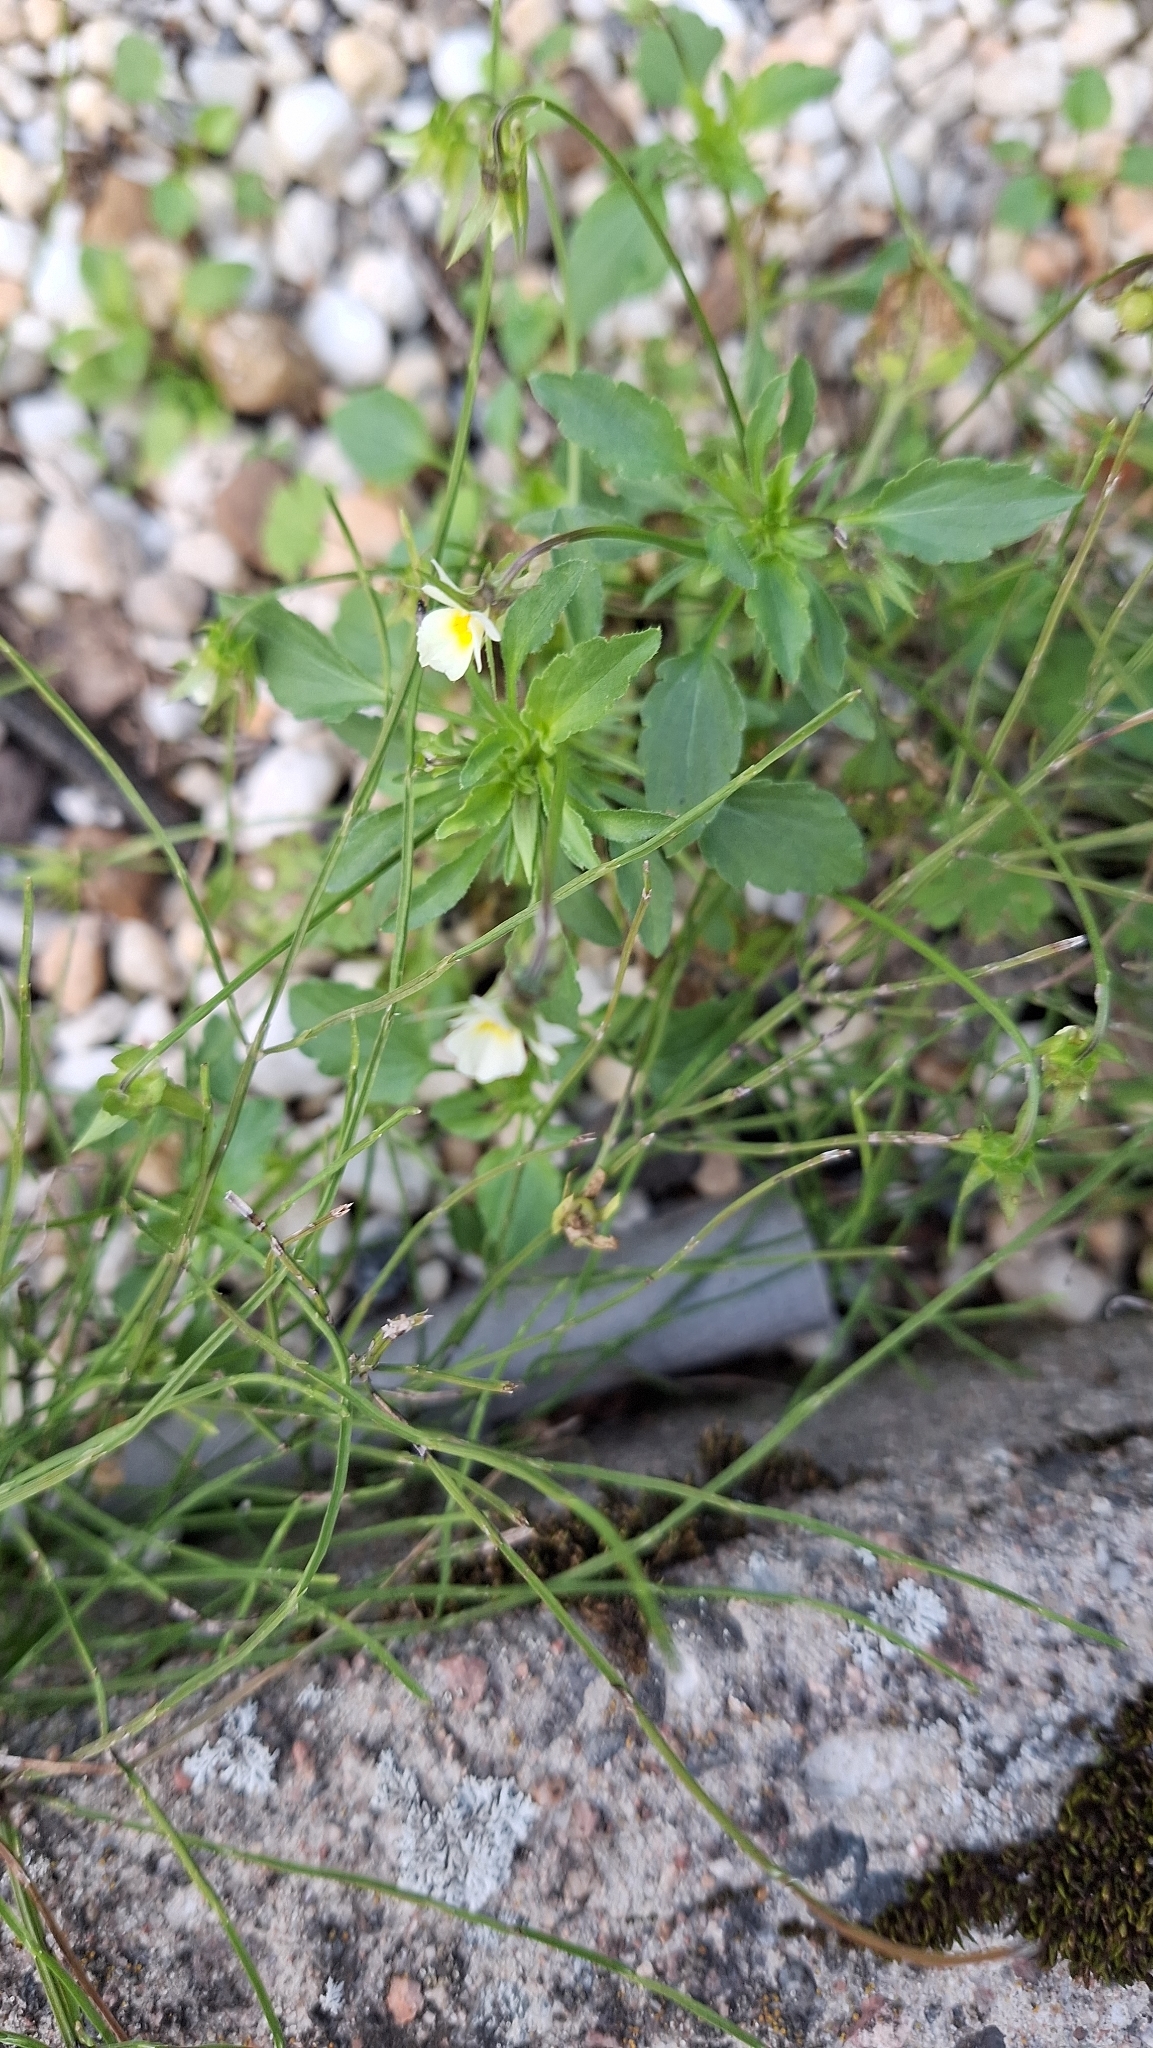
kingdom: Plantae
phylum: Tracheophyta
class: Magnoliopsida
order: Malpighiales
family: Violaceae
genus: Viola
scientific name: Viola arvensis
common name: Field pansy
